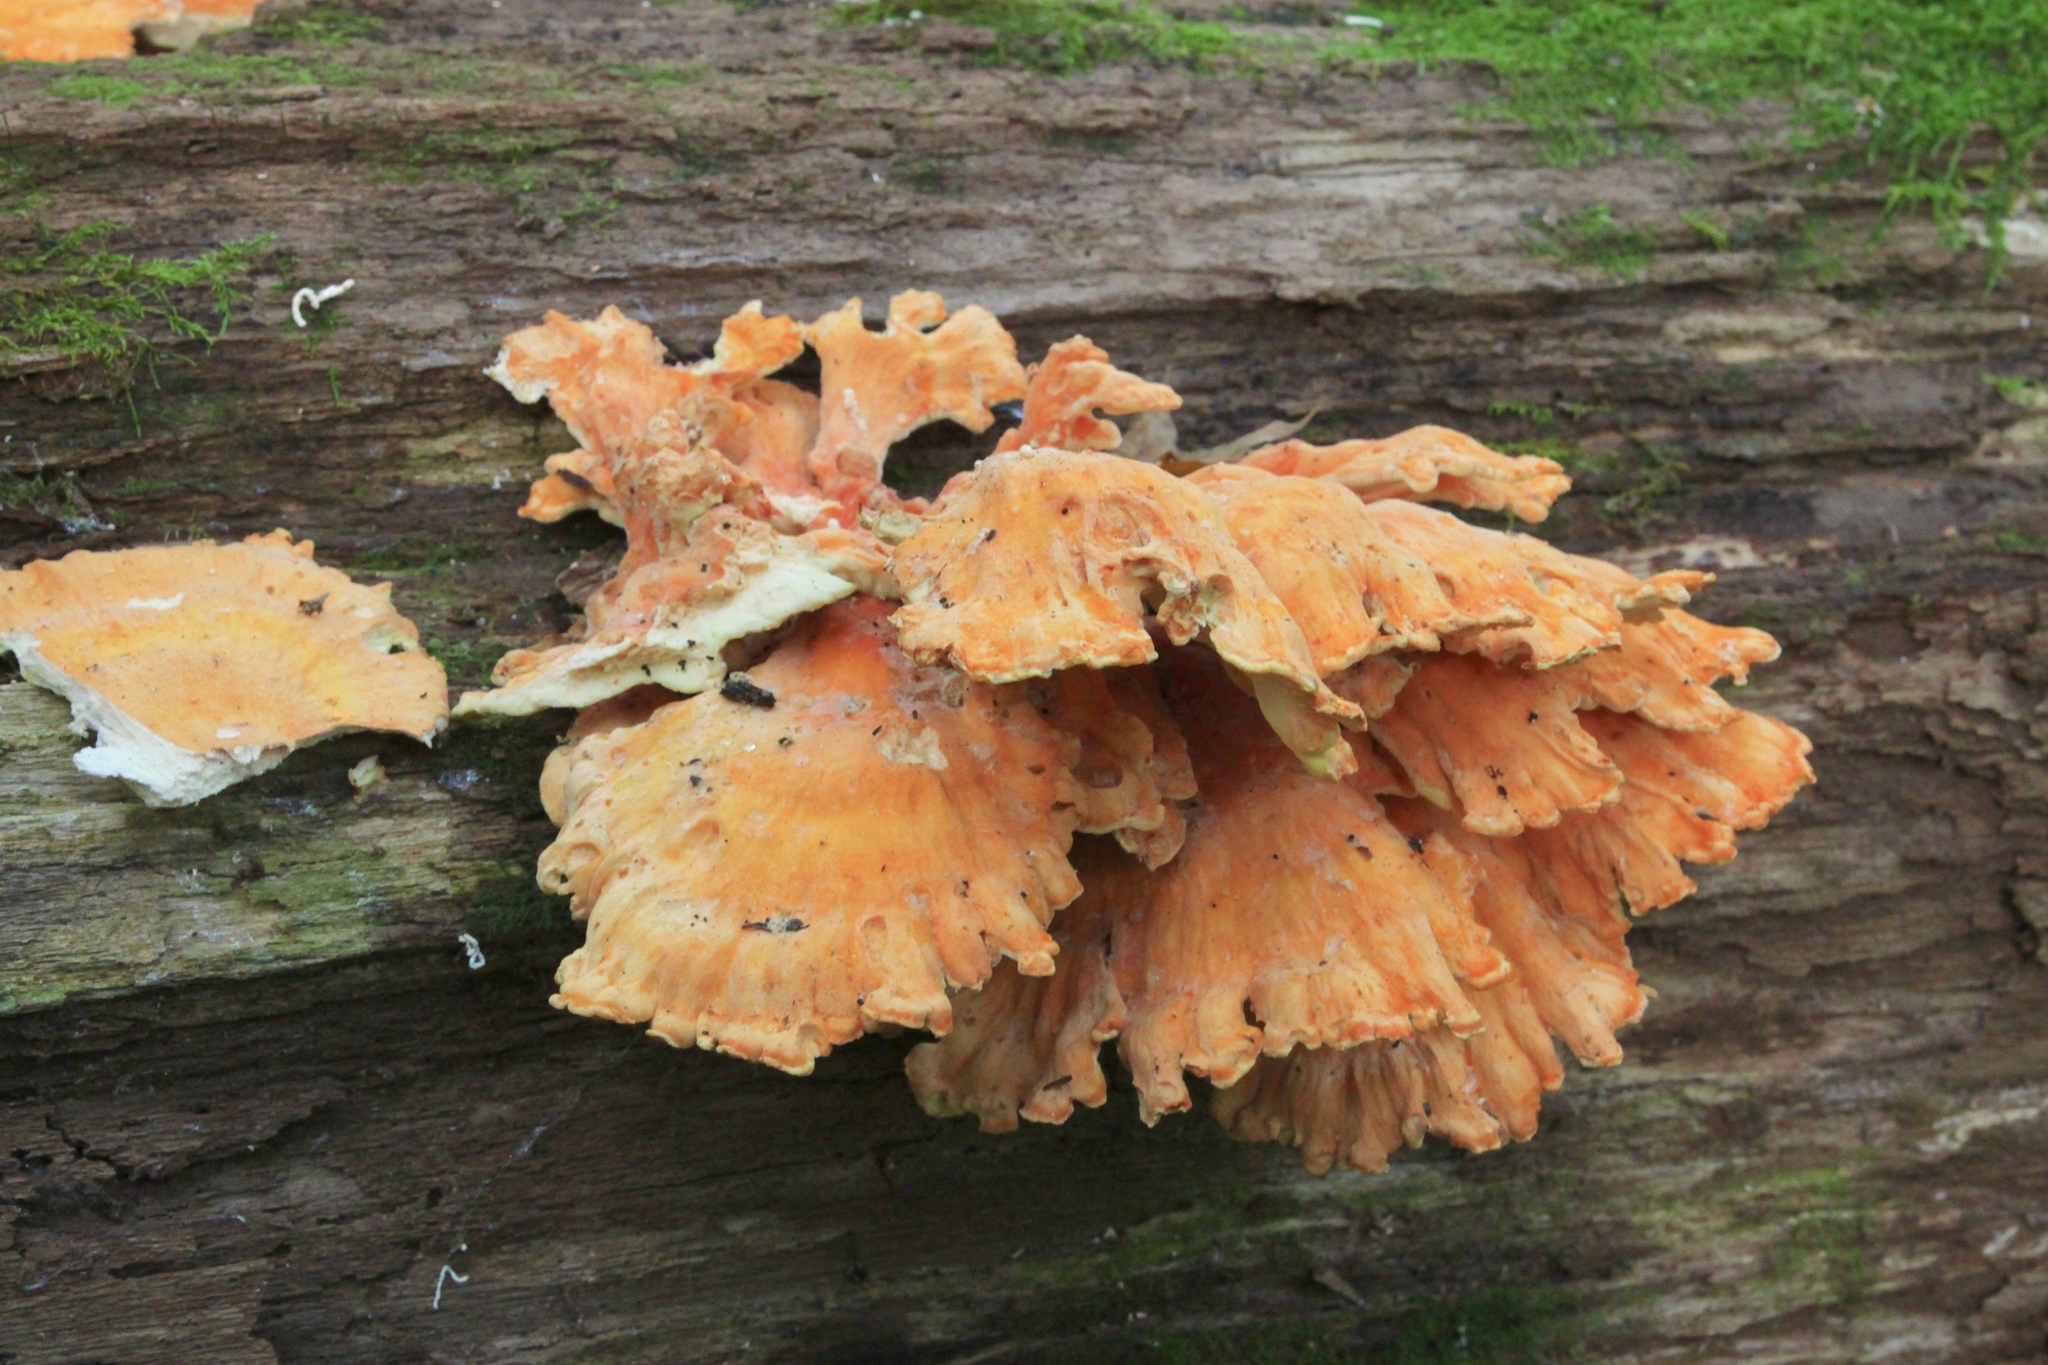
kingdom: Fungi
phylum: Basidiomycota
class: Agaricomycetes
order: Polyporales
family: Laetiporaceae
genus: Laetiporus
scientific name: Laetiporus sulphureus
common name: Chicken of the woods
